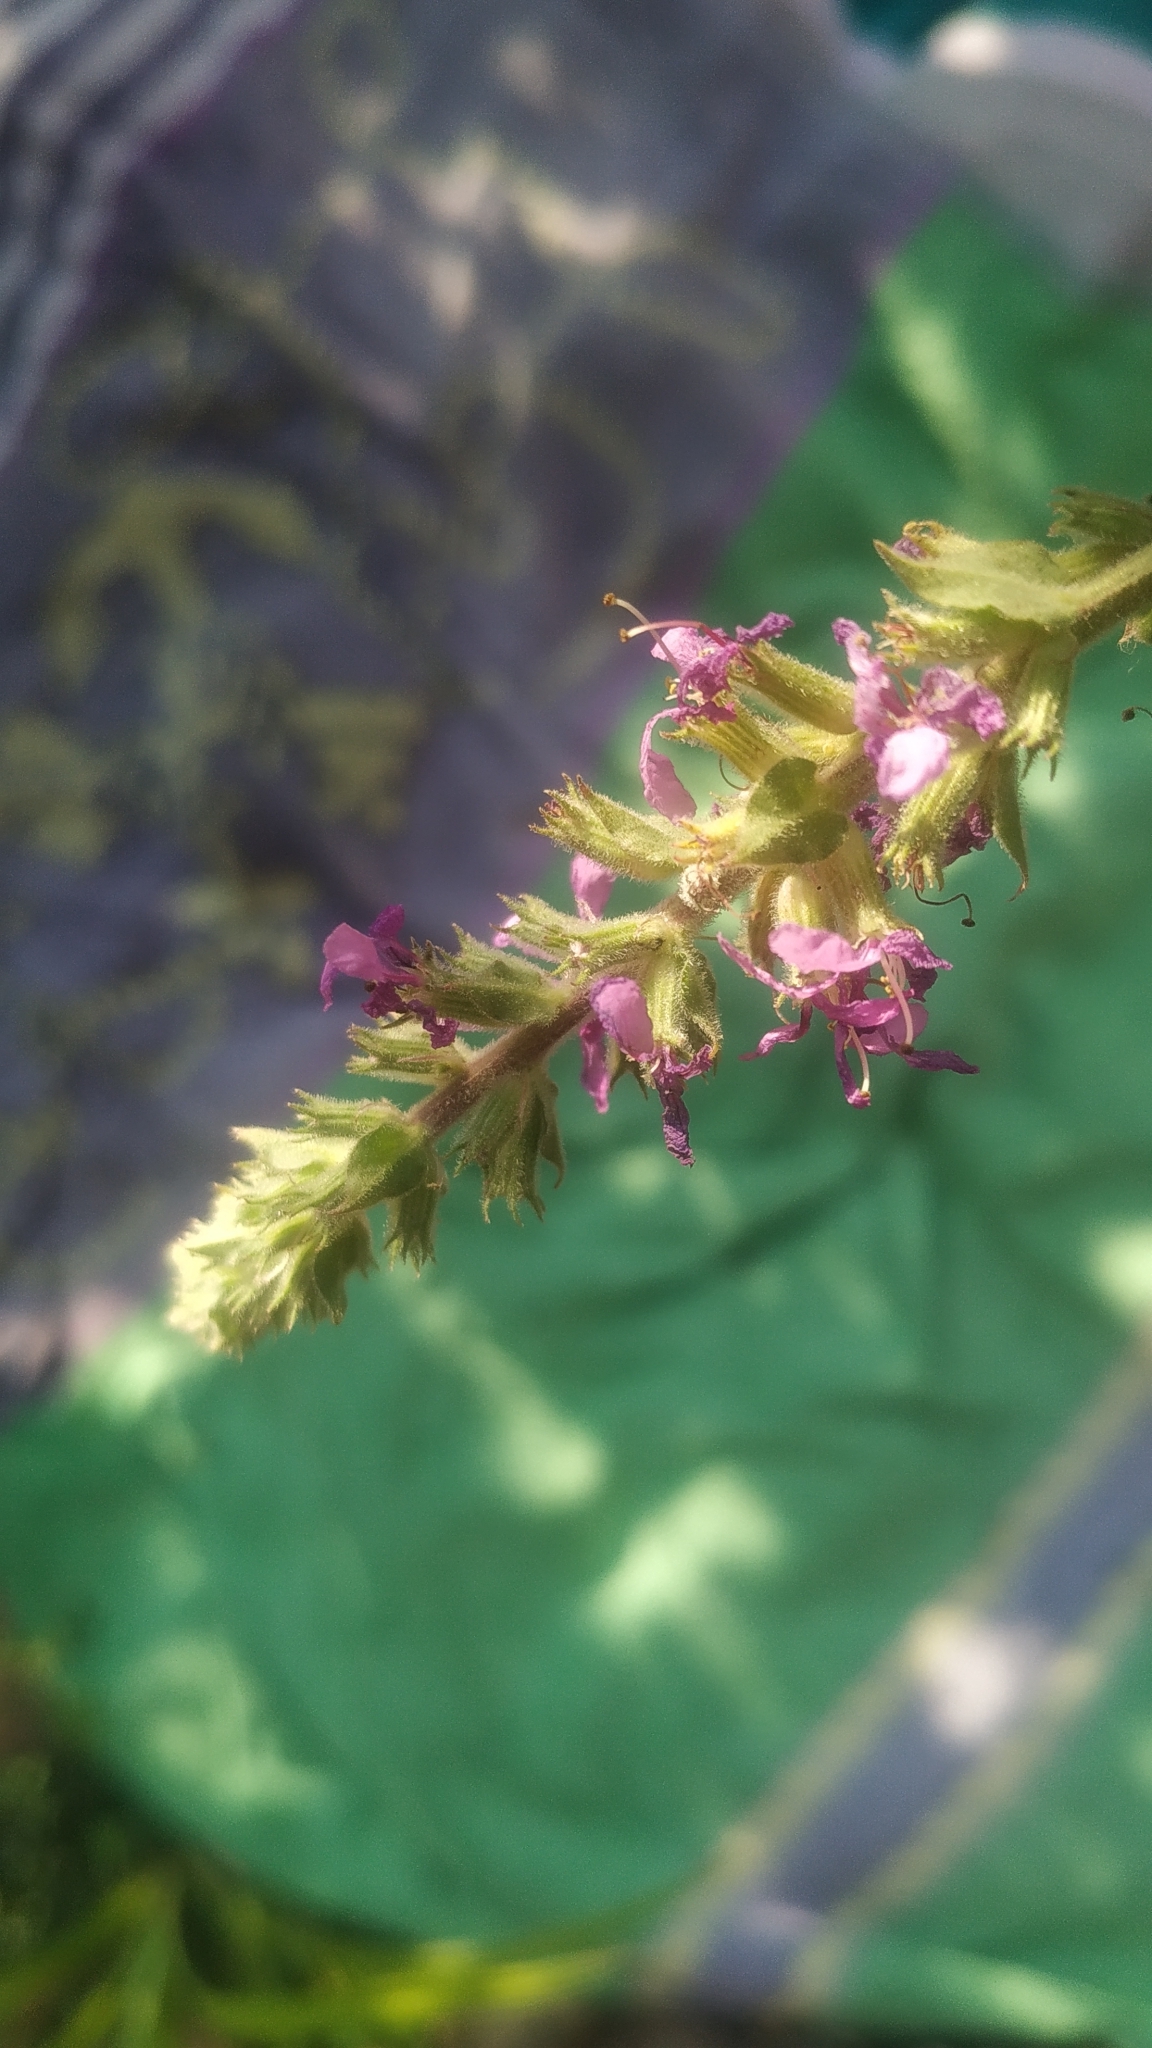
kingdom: Plantae
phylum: Tracheophyta
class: Magnoliopsida
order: Myrtales
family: Lythraceae
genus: Lythrum
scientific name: Lythrum salicaria
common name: Purple loosestrife
